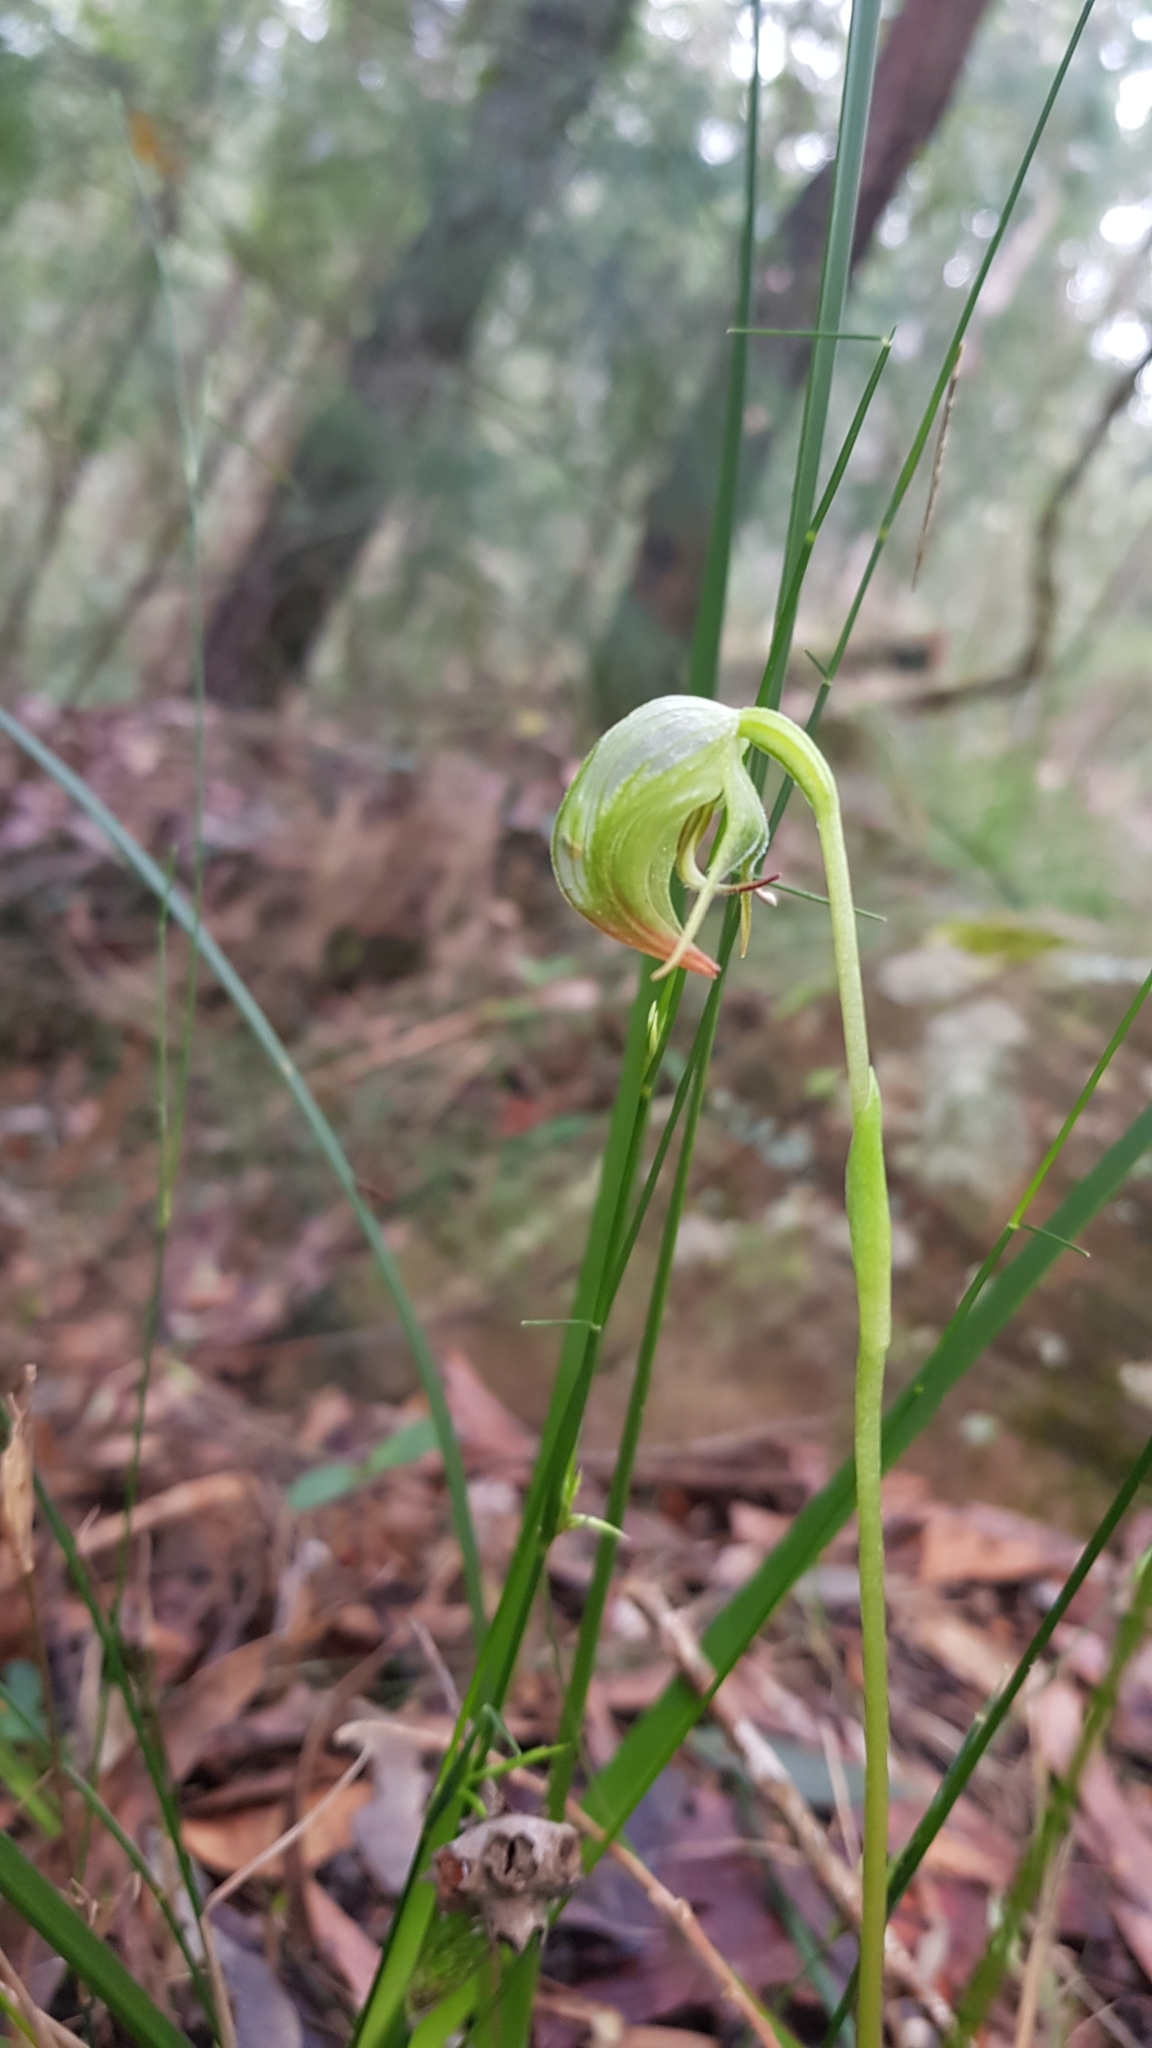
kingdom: Plantae
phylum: Tracheophyta
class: Liliopsida
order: Asparagales
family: Orchidaceae
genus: Pterostylis
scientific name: Pterostylis nutans
